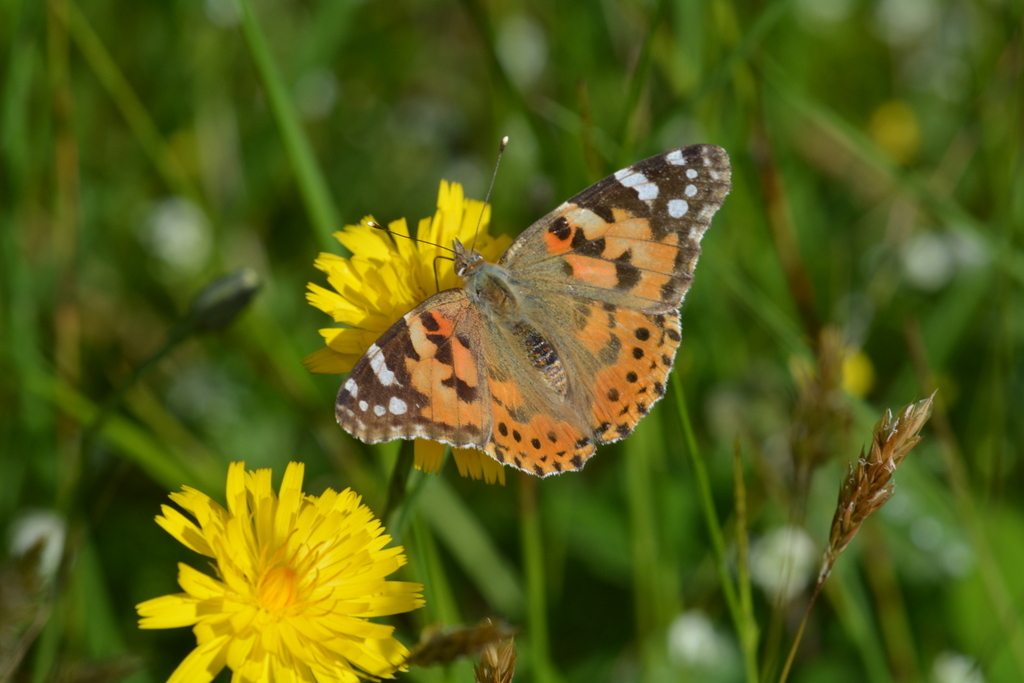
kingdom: Animalia
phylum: Arthropoda
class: Insecta
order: Lepidoptera
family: Nymphalidae
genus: Vanessa
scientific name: Vanessa cardui
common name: Painted lady
